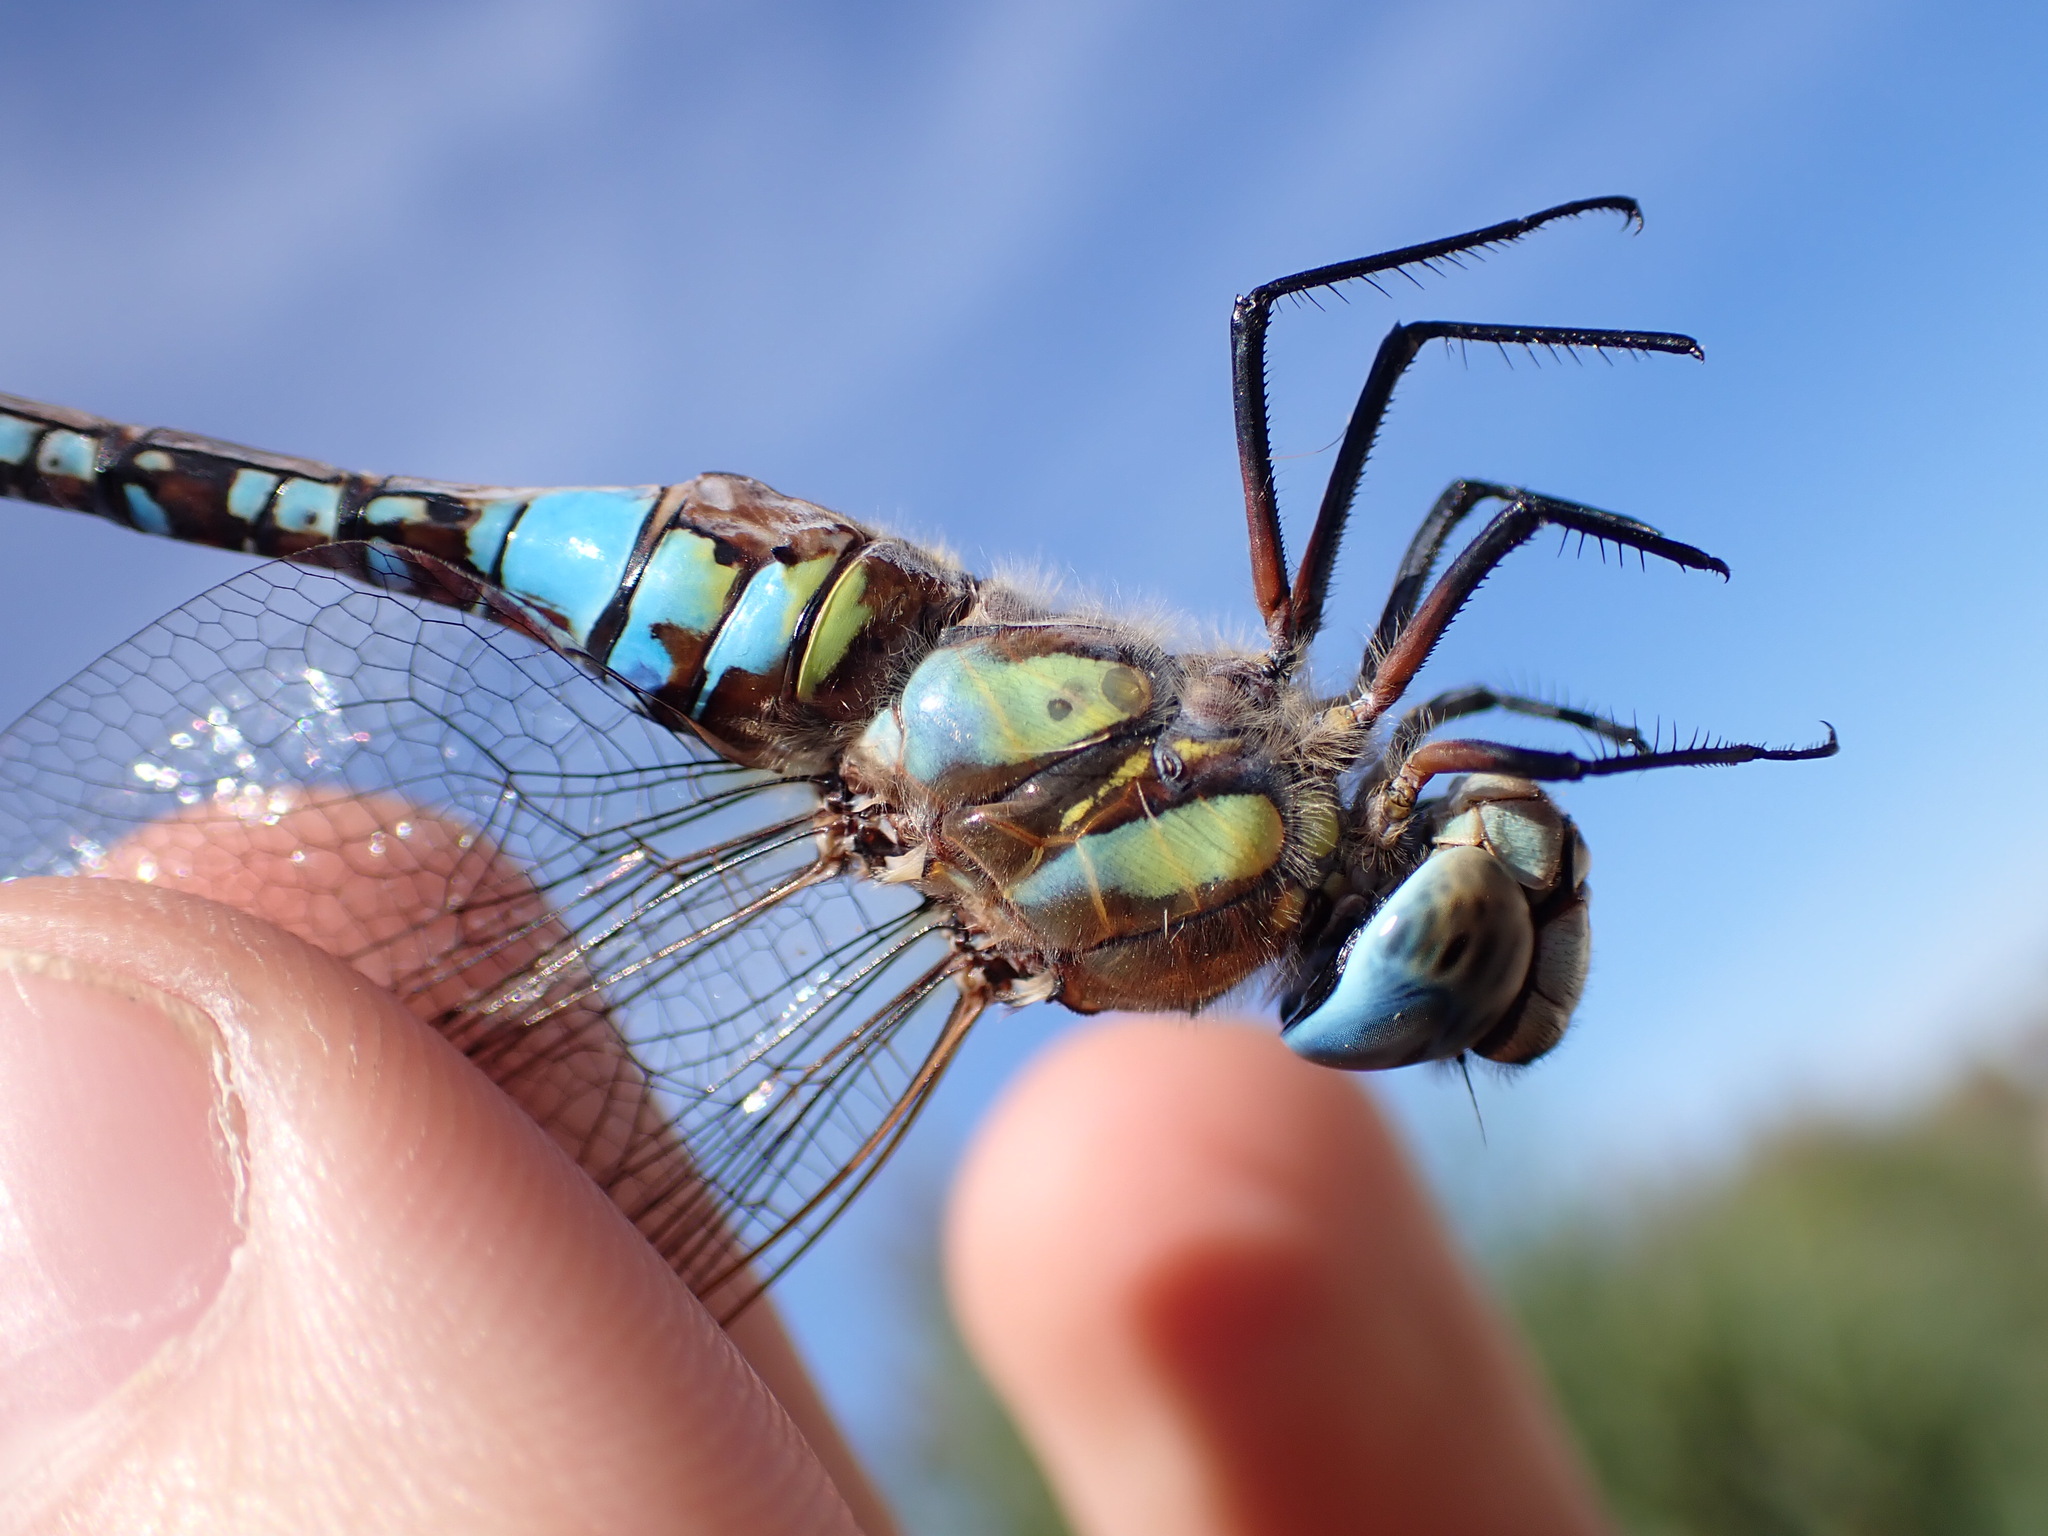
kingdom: Animalia
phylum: Arthropoda
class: Insecta
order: Odonata
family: Aeshnidae
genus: Aeshna
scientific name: Aeshna mixta
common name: Migrant hawker
